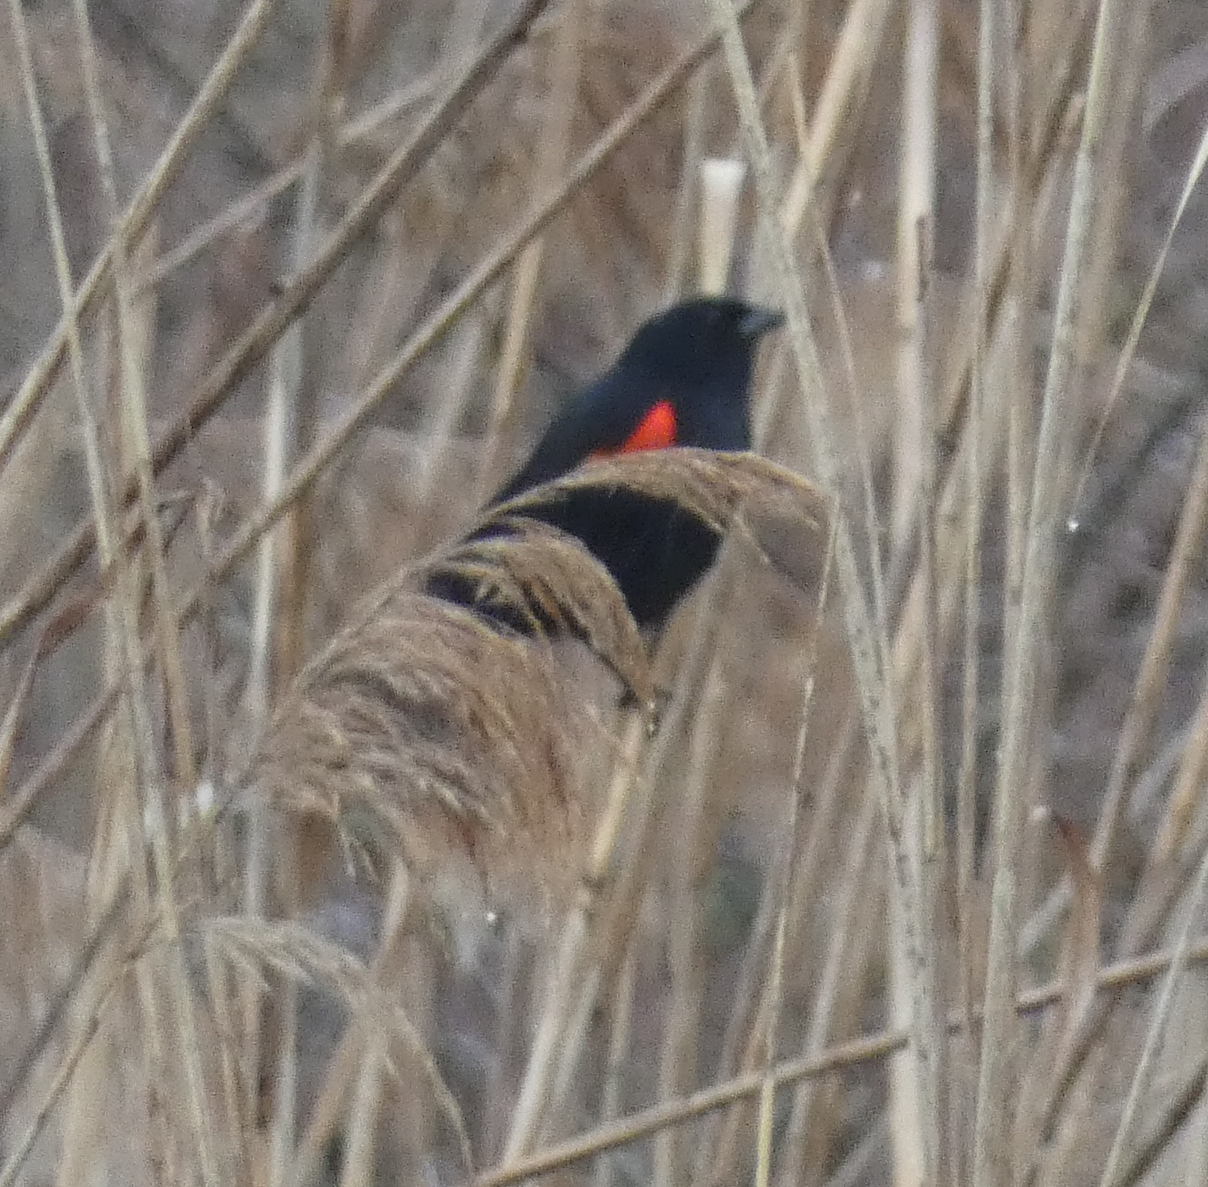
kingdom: Animalia
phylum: Chordata
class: Aves
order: Passeriformes
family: Icteridae
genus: Agelaius
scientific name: Agelaius phoeniceus
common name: Red-winged blackbird
